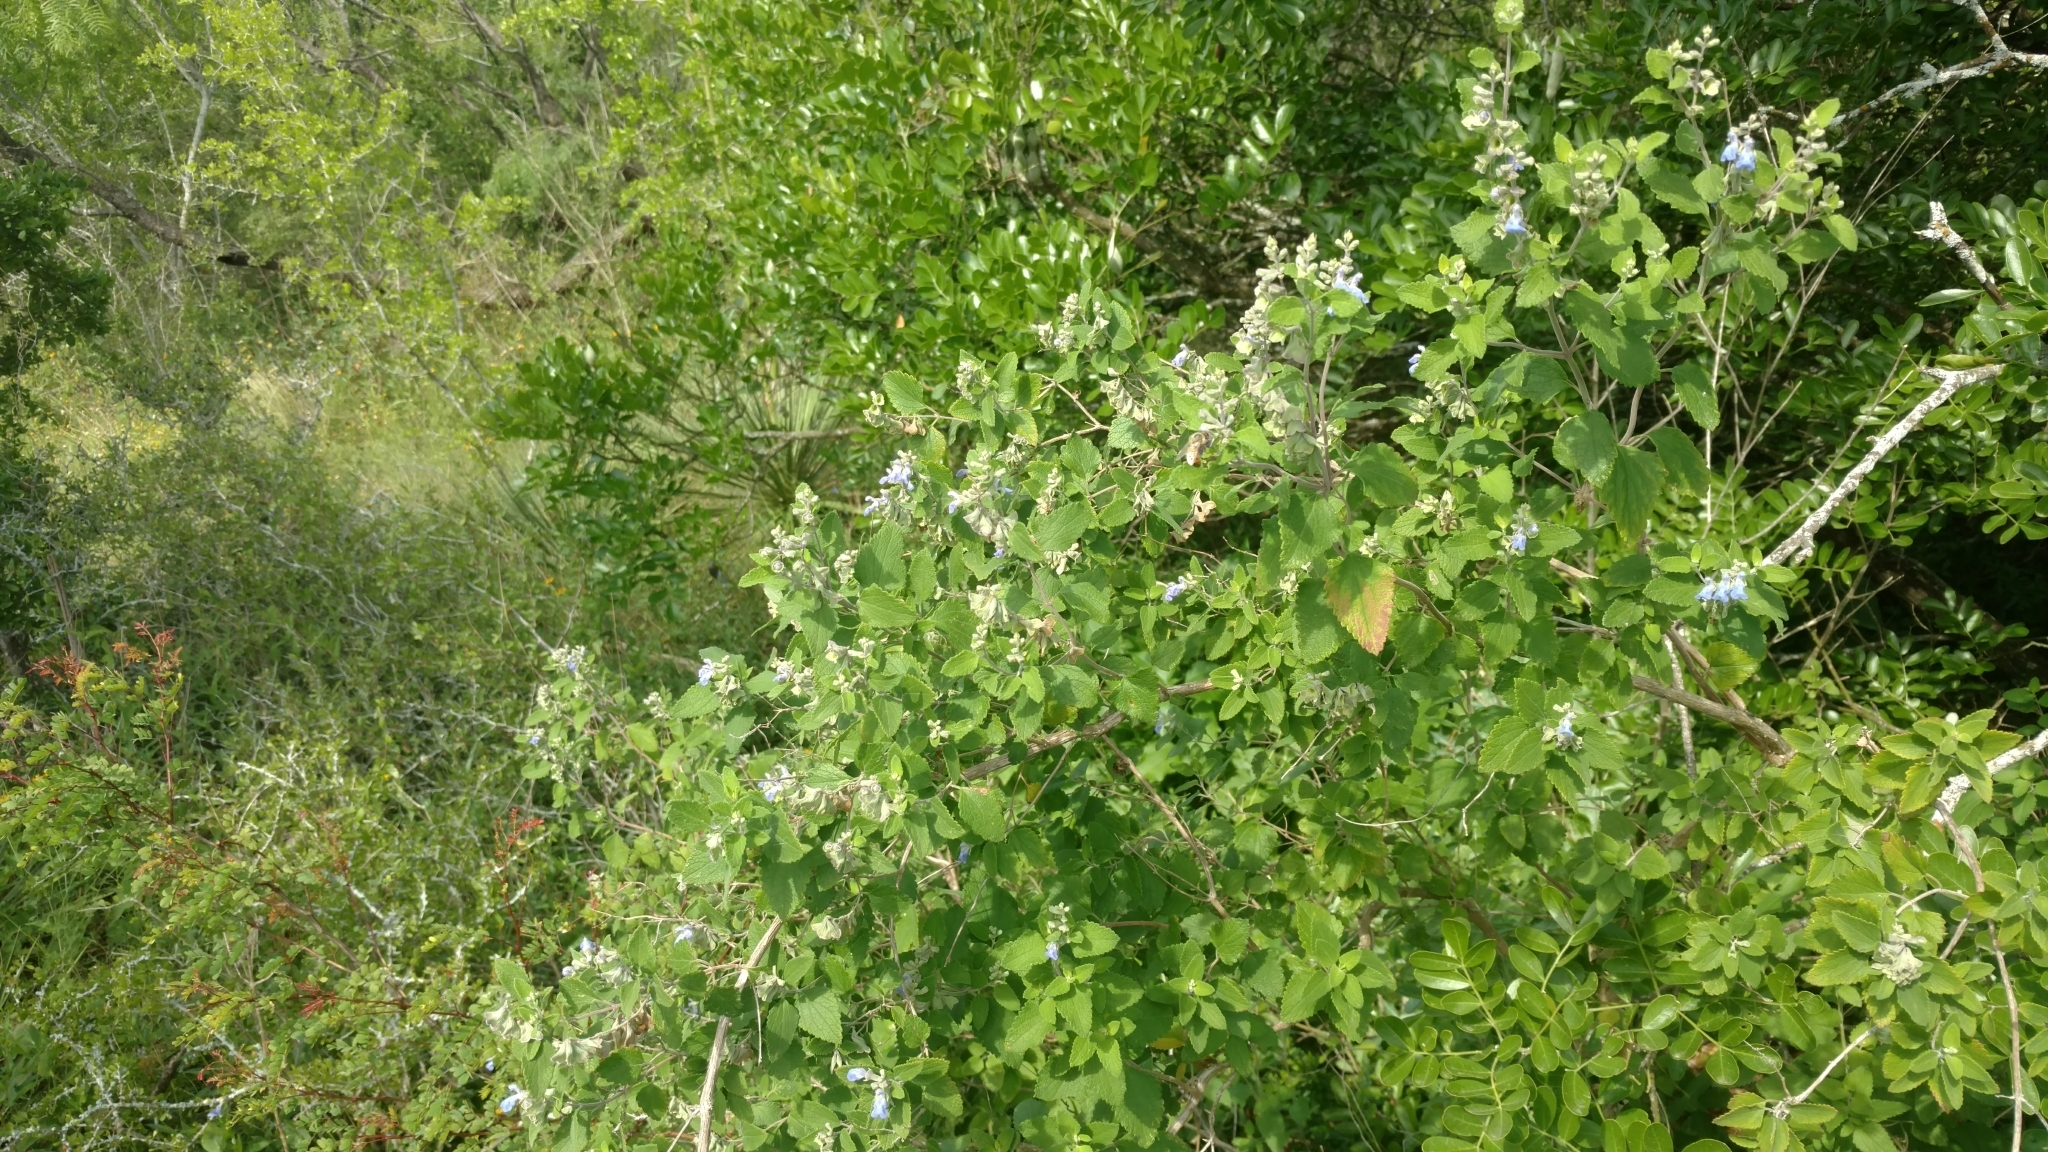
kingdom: Plantae
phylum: Tracheophyta
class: Magnoliopsida
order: Lamiales
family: Lamiaceae
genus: Salvia
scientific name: Salvia ballotiflora
